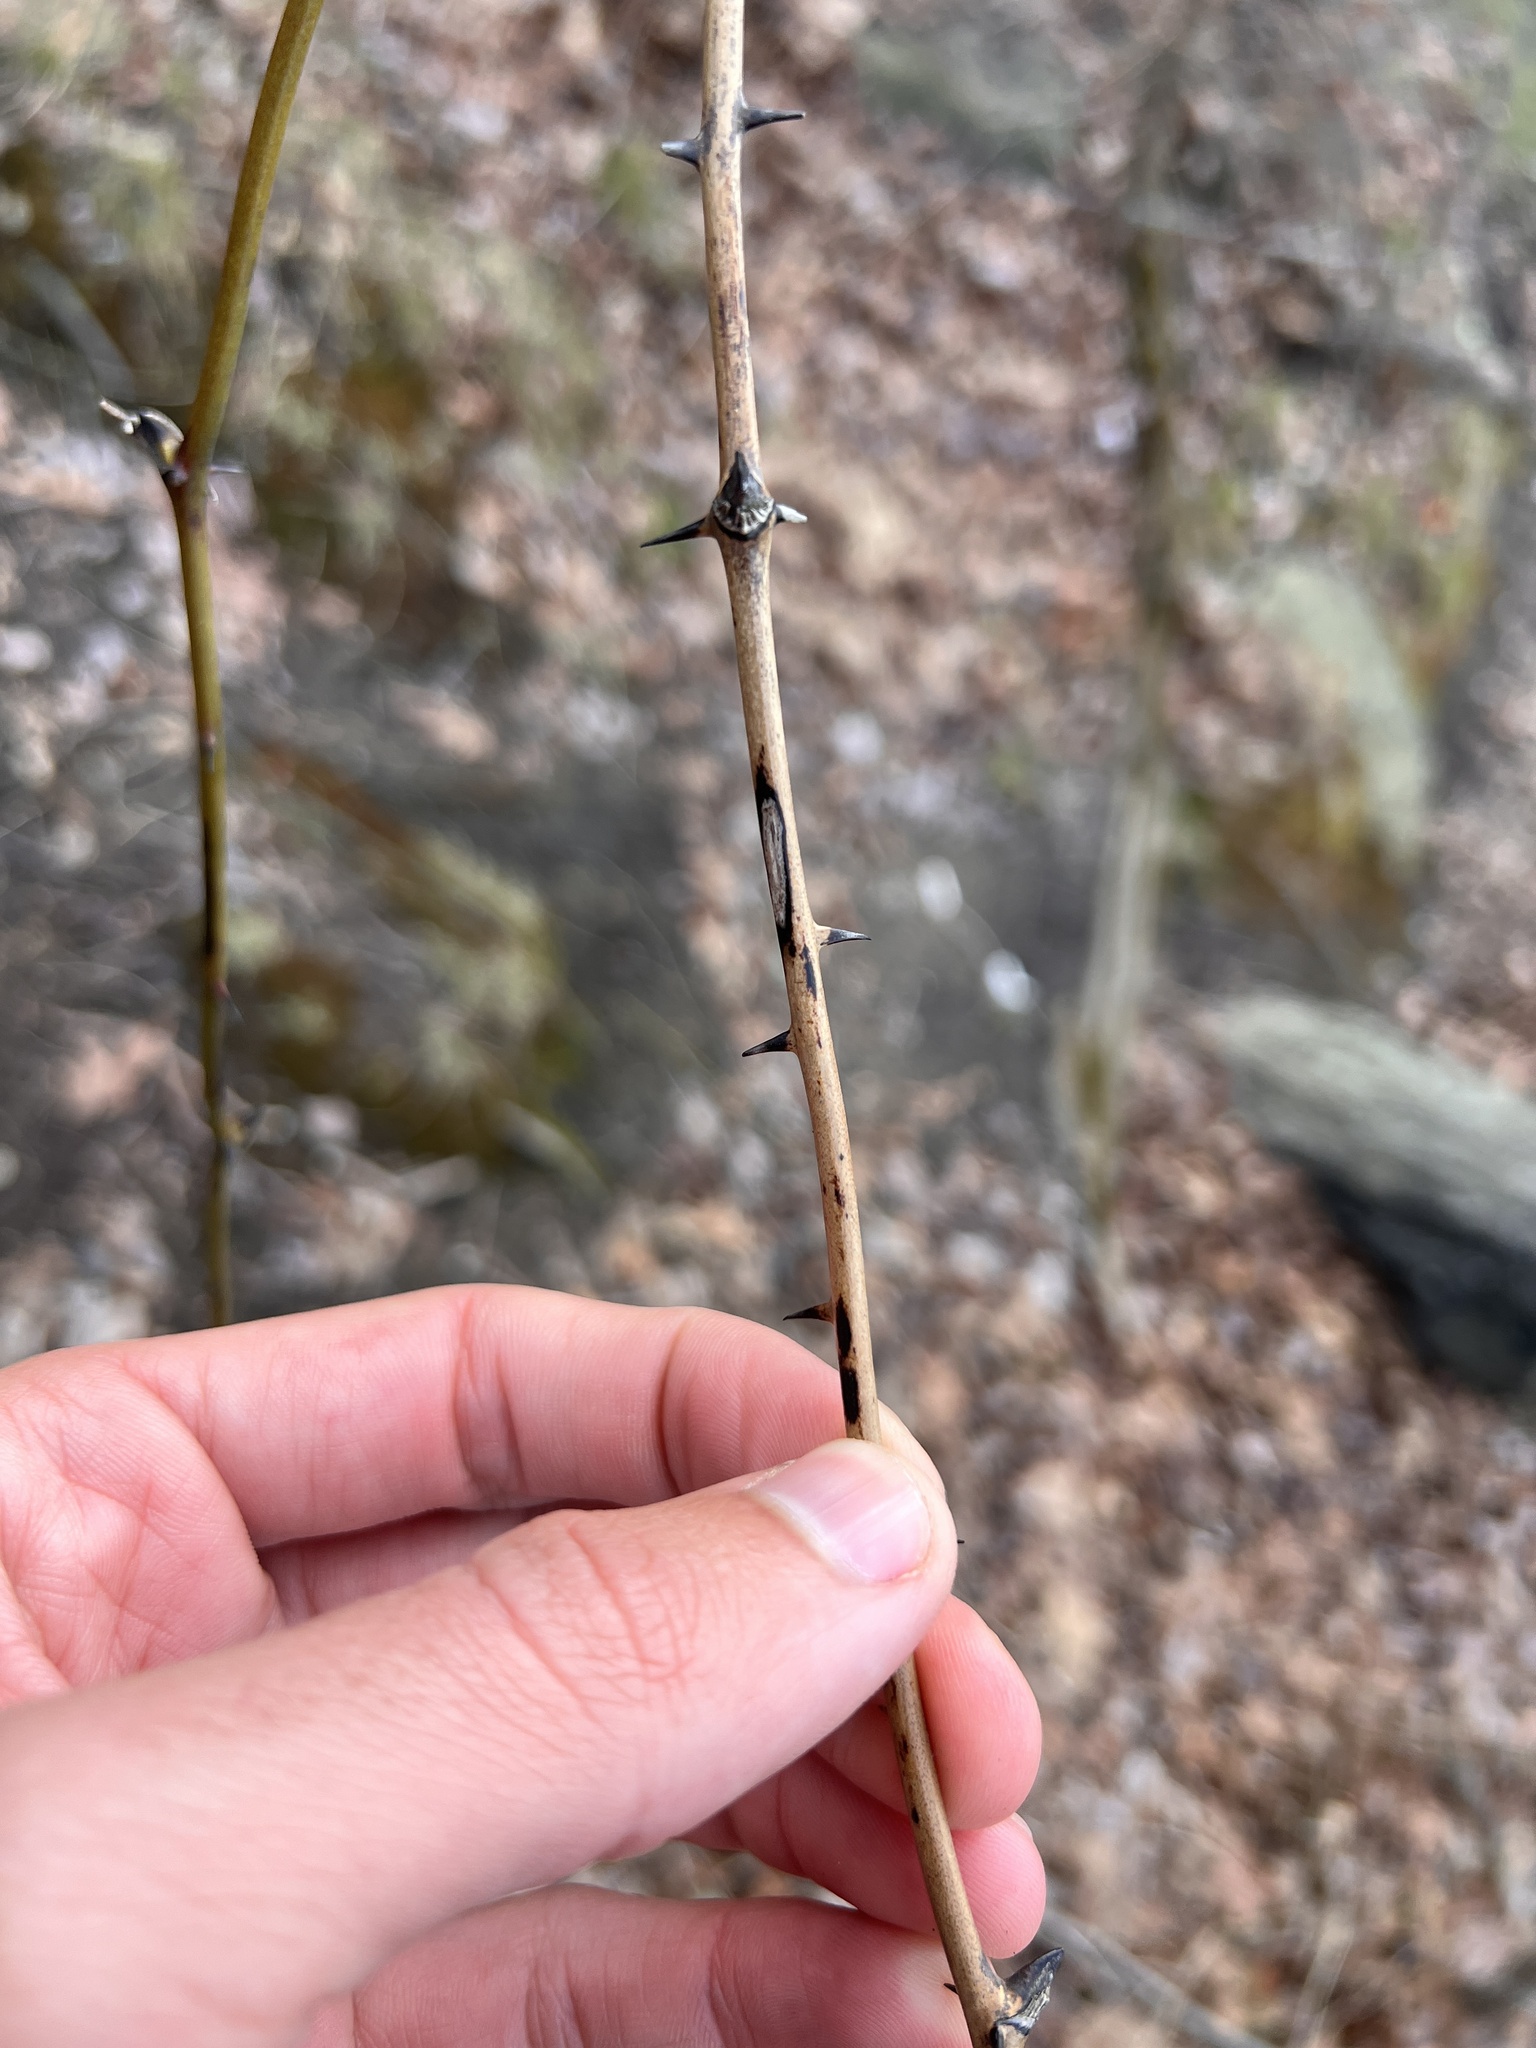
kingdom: Plantae
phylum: Tracheophyta
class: Liliopsida
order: Liliales
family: Smilacaceae
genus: Smilax
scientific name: Smilax glauca
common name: Cat greenbrier
